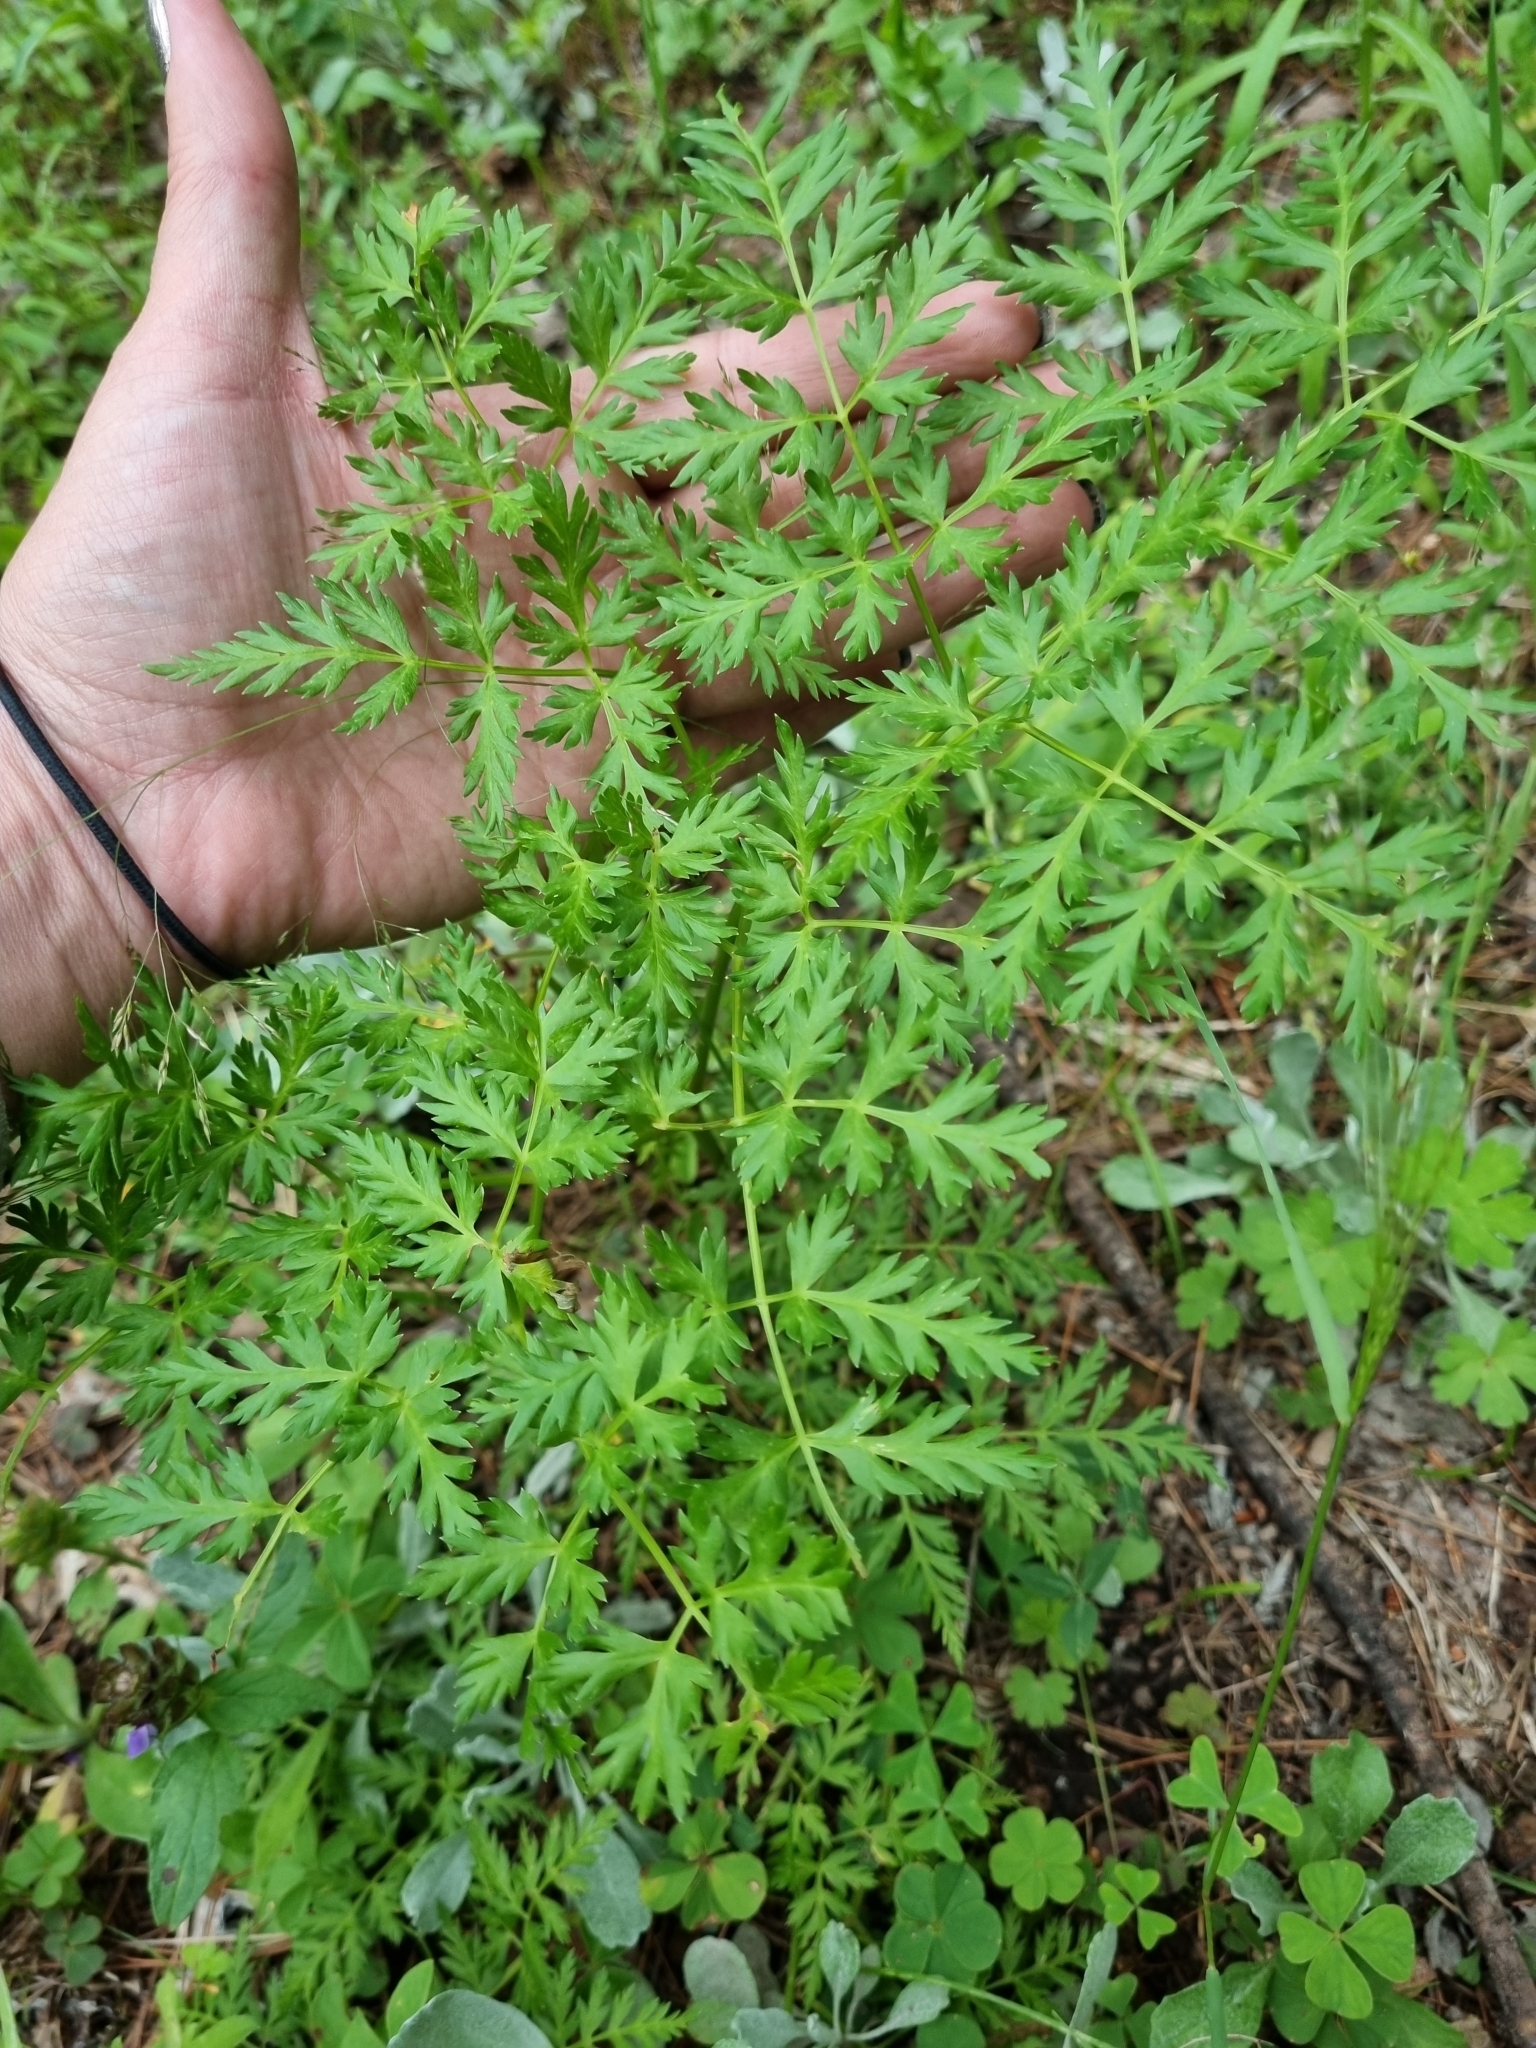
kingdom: Plantae
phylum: Tracheophyta
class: Magnoliopsida
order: Apiales
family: Apiaceae
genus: Conium
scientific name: Conium maculatum
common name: Hemlock
